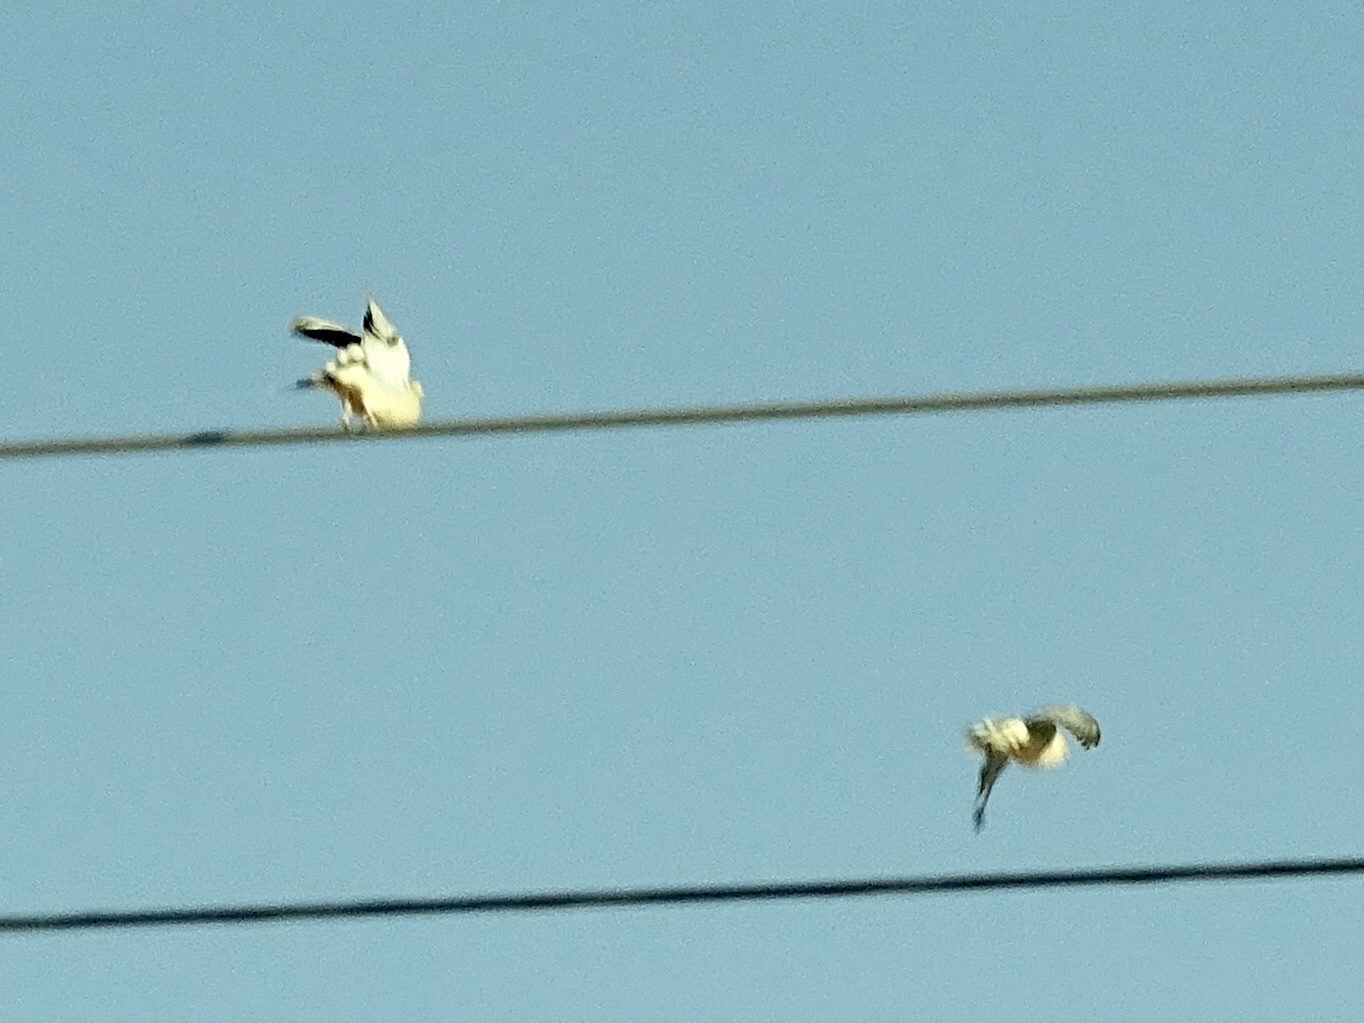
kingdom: Animalia
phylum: Chordata
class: Aves
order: Columbiformes
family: Columbidae
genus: Zenaida
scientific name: Zenaida macroura
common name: Mourning dove
